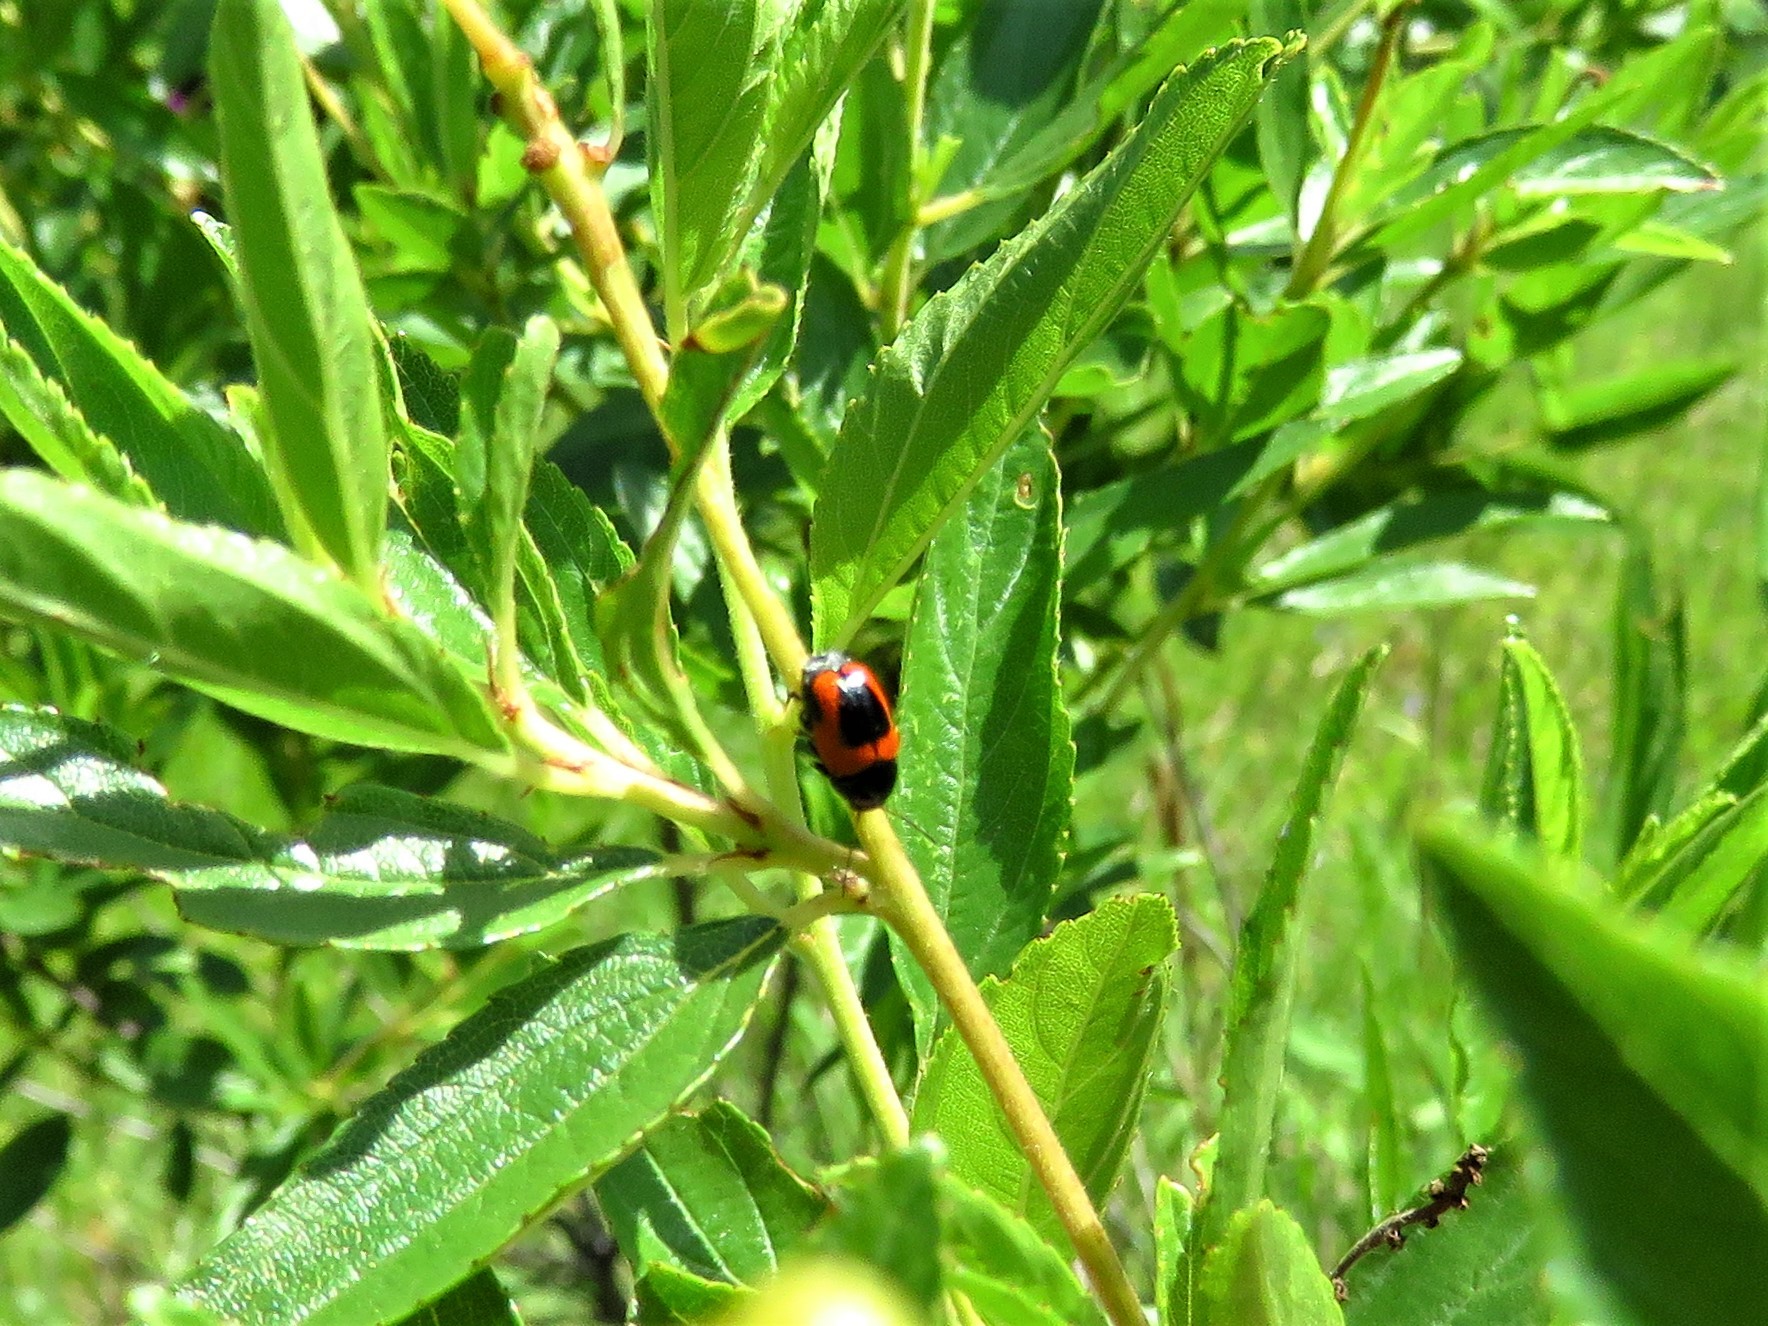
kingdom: Animalia
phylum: Arthropoda
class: Insecta
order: Coleoptera
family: Chrysomelidae
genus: Cryptocephalus
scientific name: Cryptocephalus notatus
